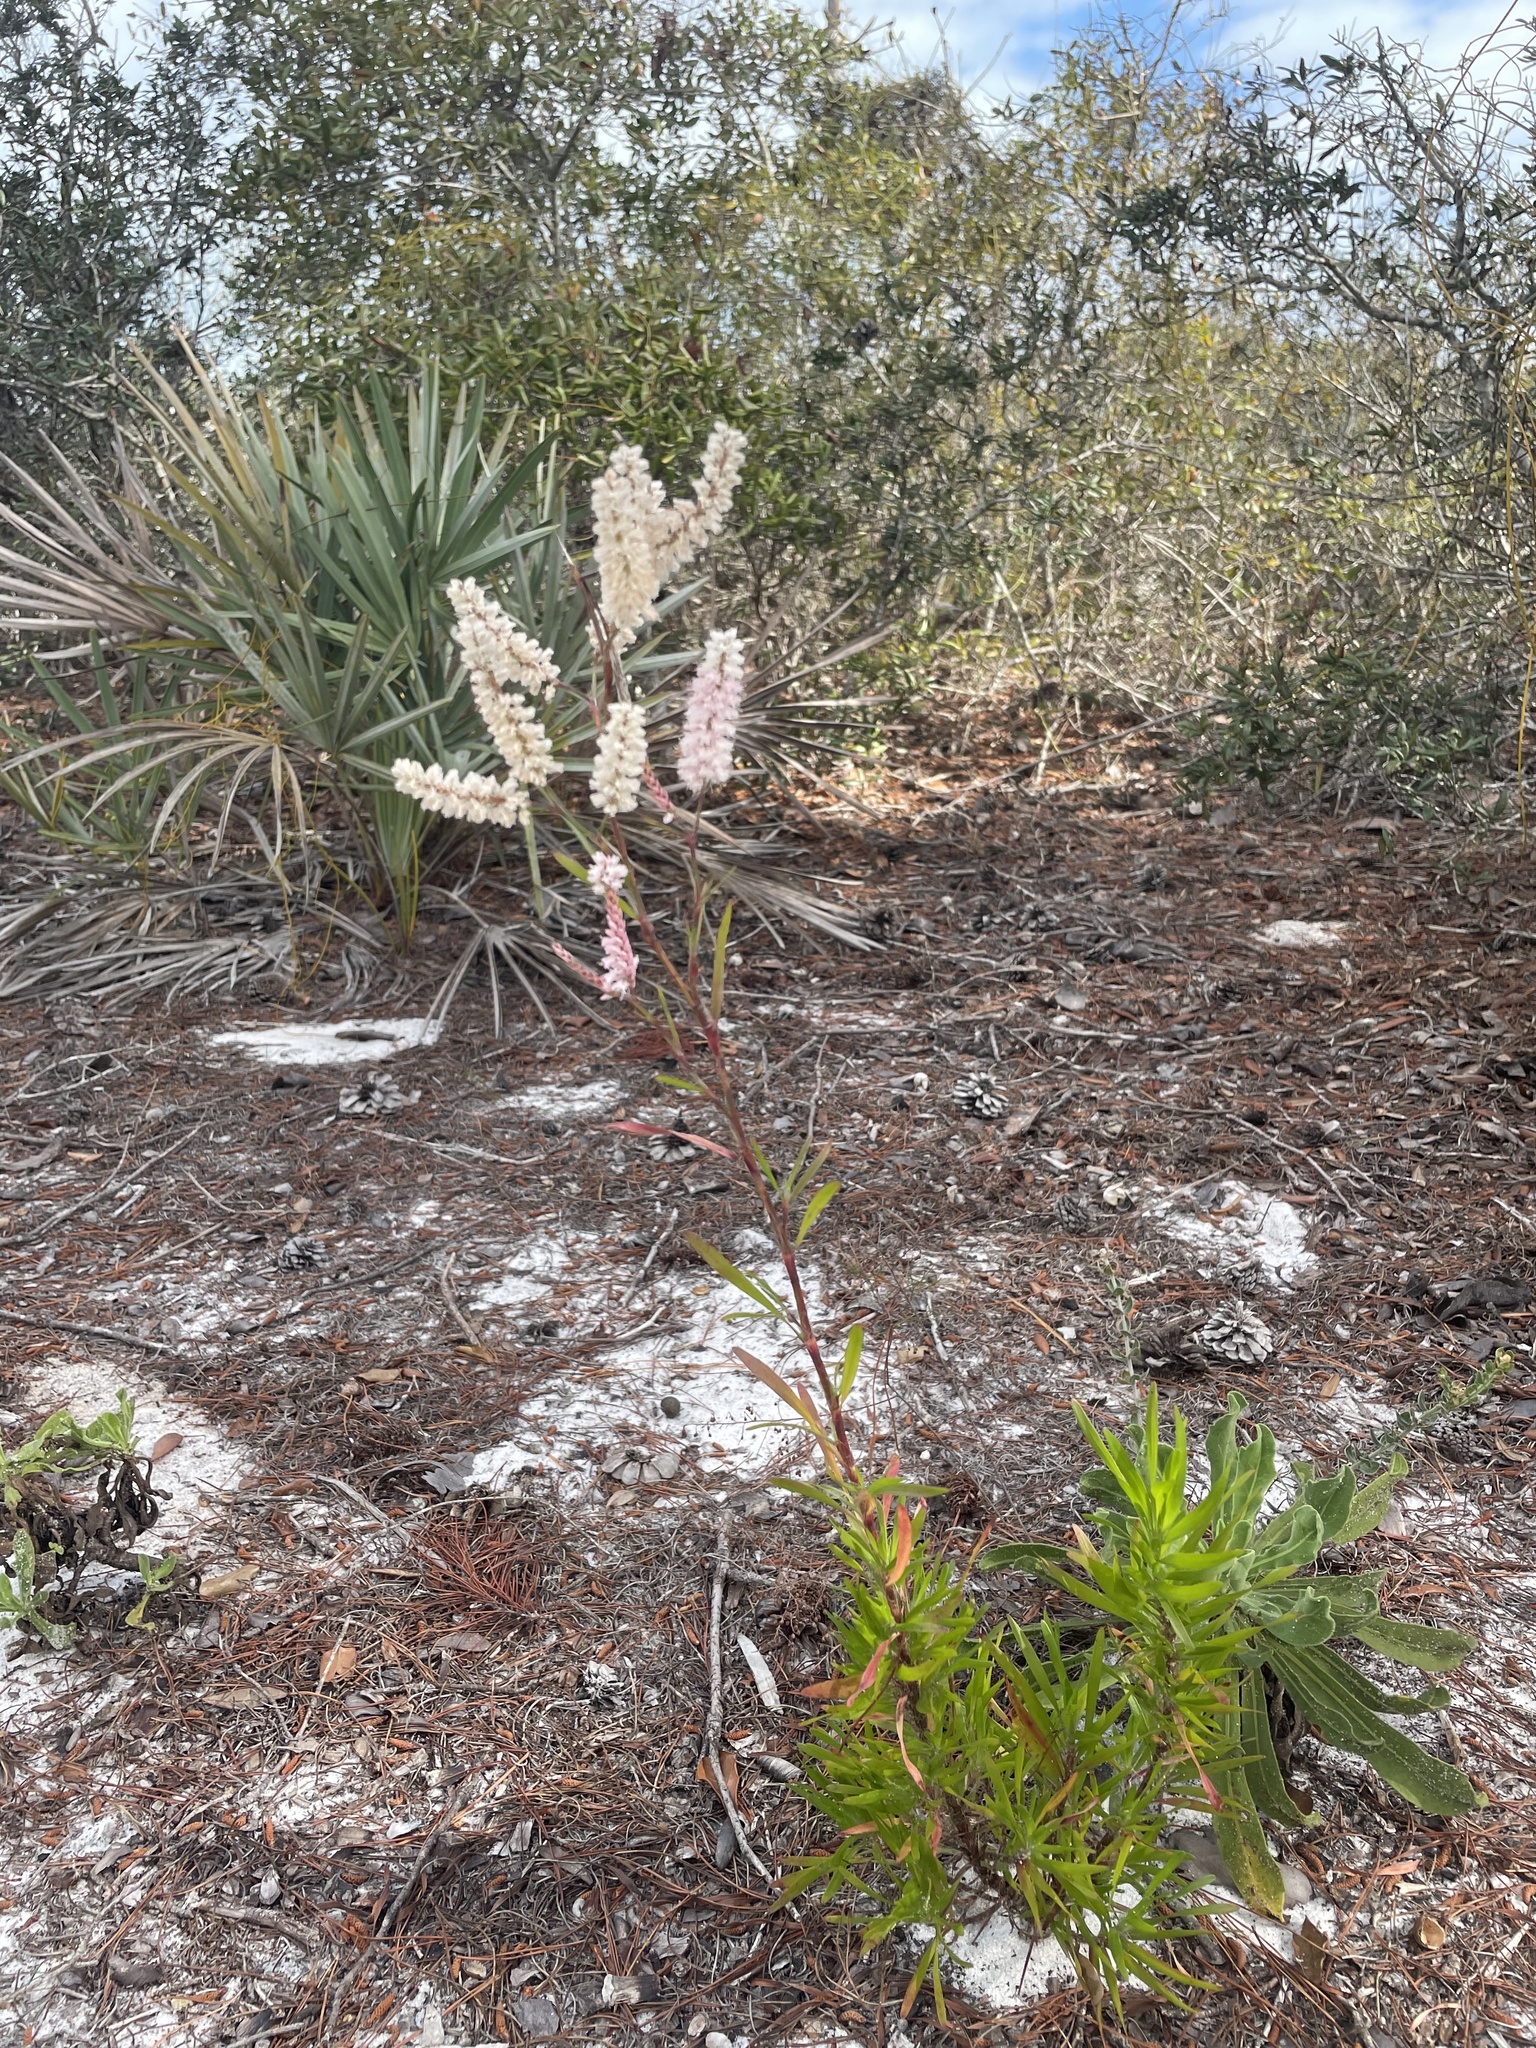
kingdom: Plantae
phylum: Tracheophyta
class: Magnoliopsida
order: Caryophyllales
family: Polygonaceae
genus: Polygonella
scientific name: Polygonella robusta
